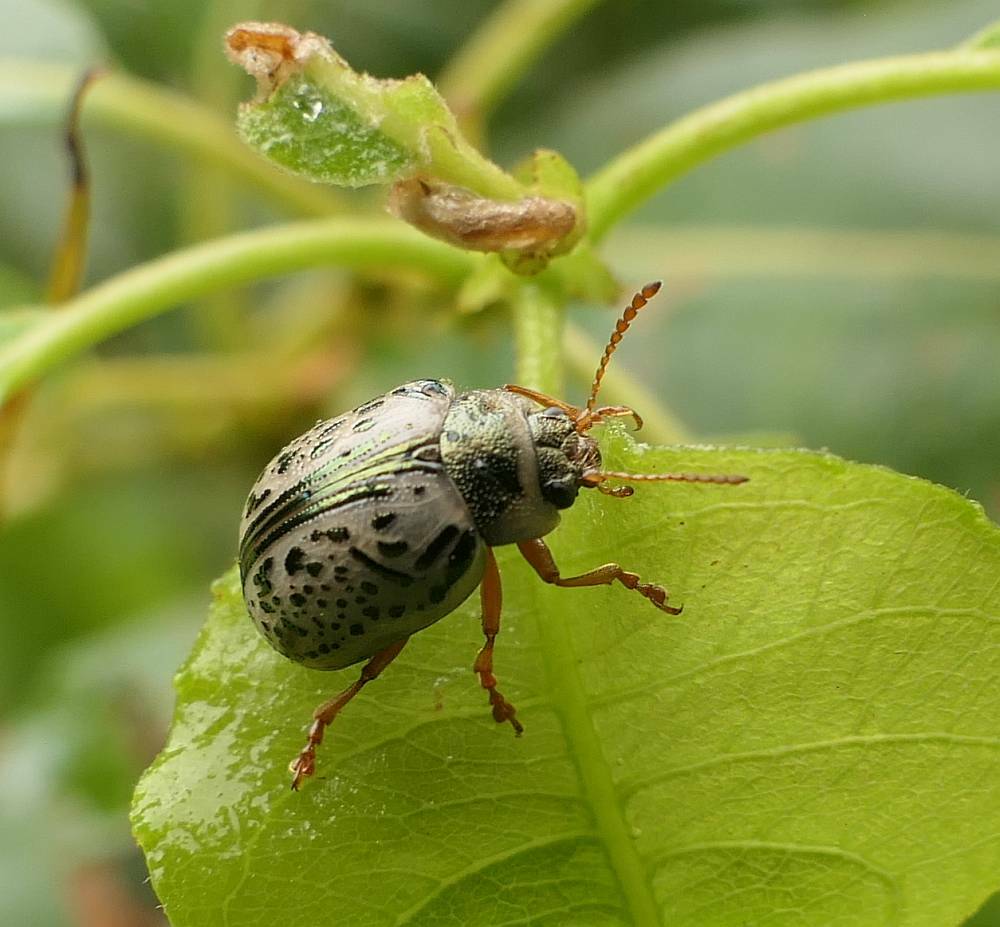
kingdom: Animalia
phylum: Arthropoda
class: Insecta
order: Coleoptera
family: Chrysomelidae
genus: Calligrapha
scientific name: Calligrapha multipunctata
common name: Common willow calligrapher beetle
